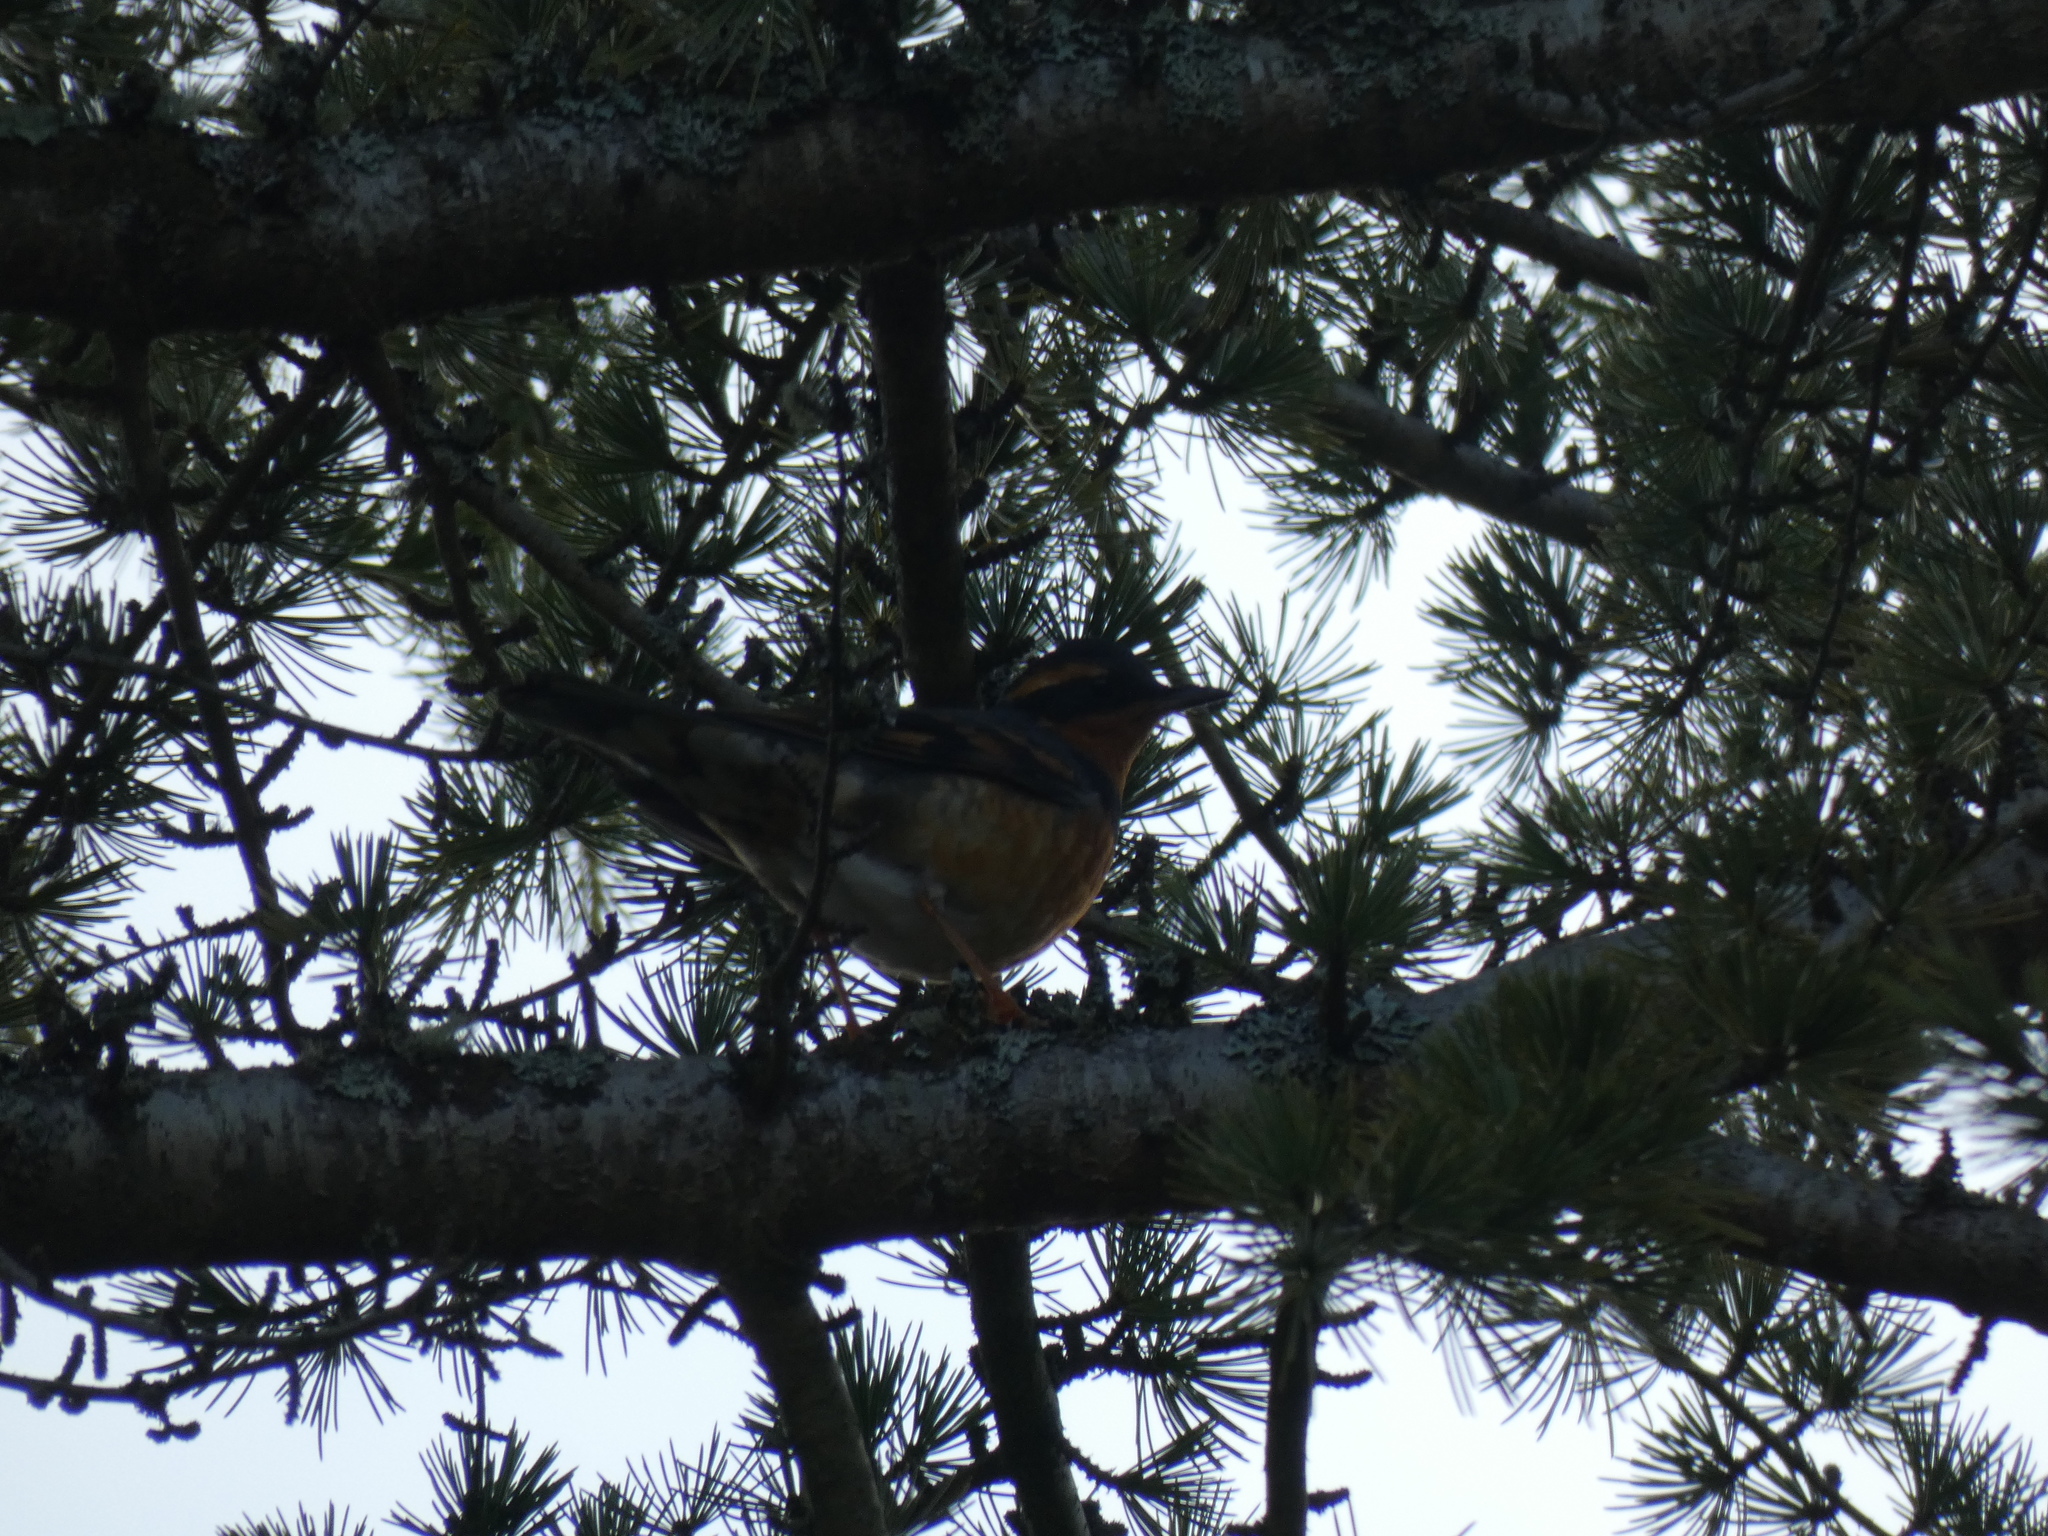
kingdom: Animalia
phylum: Chordata
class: Aves
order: Passeriformes
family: Turdidae
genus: Ixoreus
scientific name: Ixoreus naevius
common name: Varied thrush
